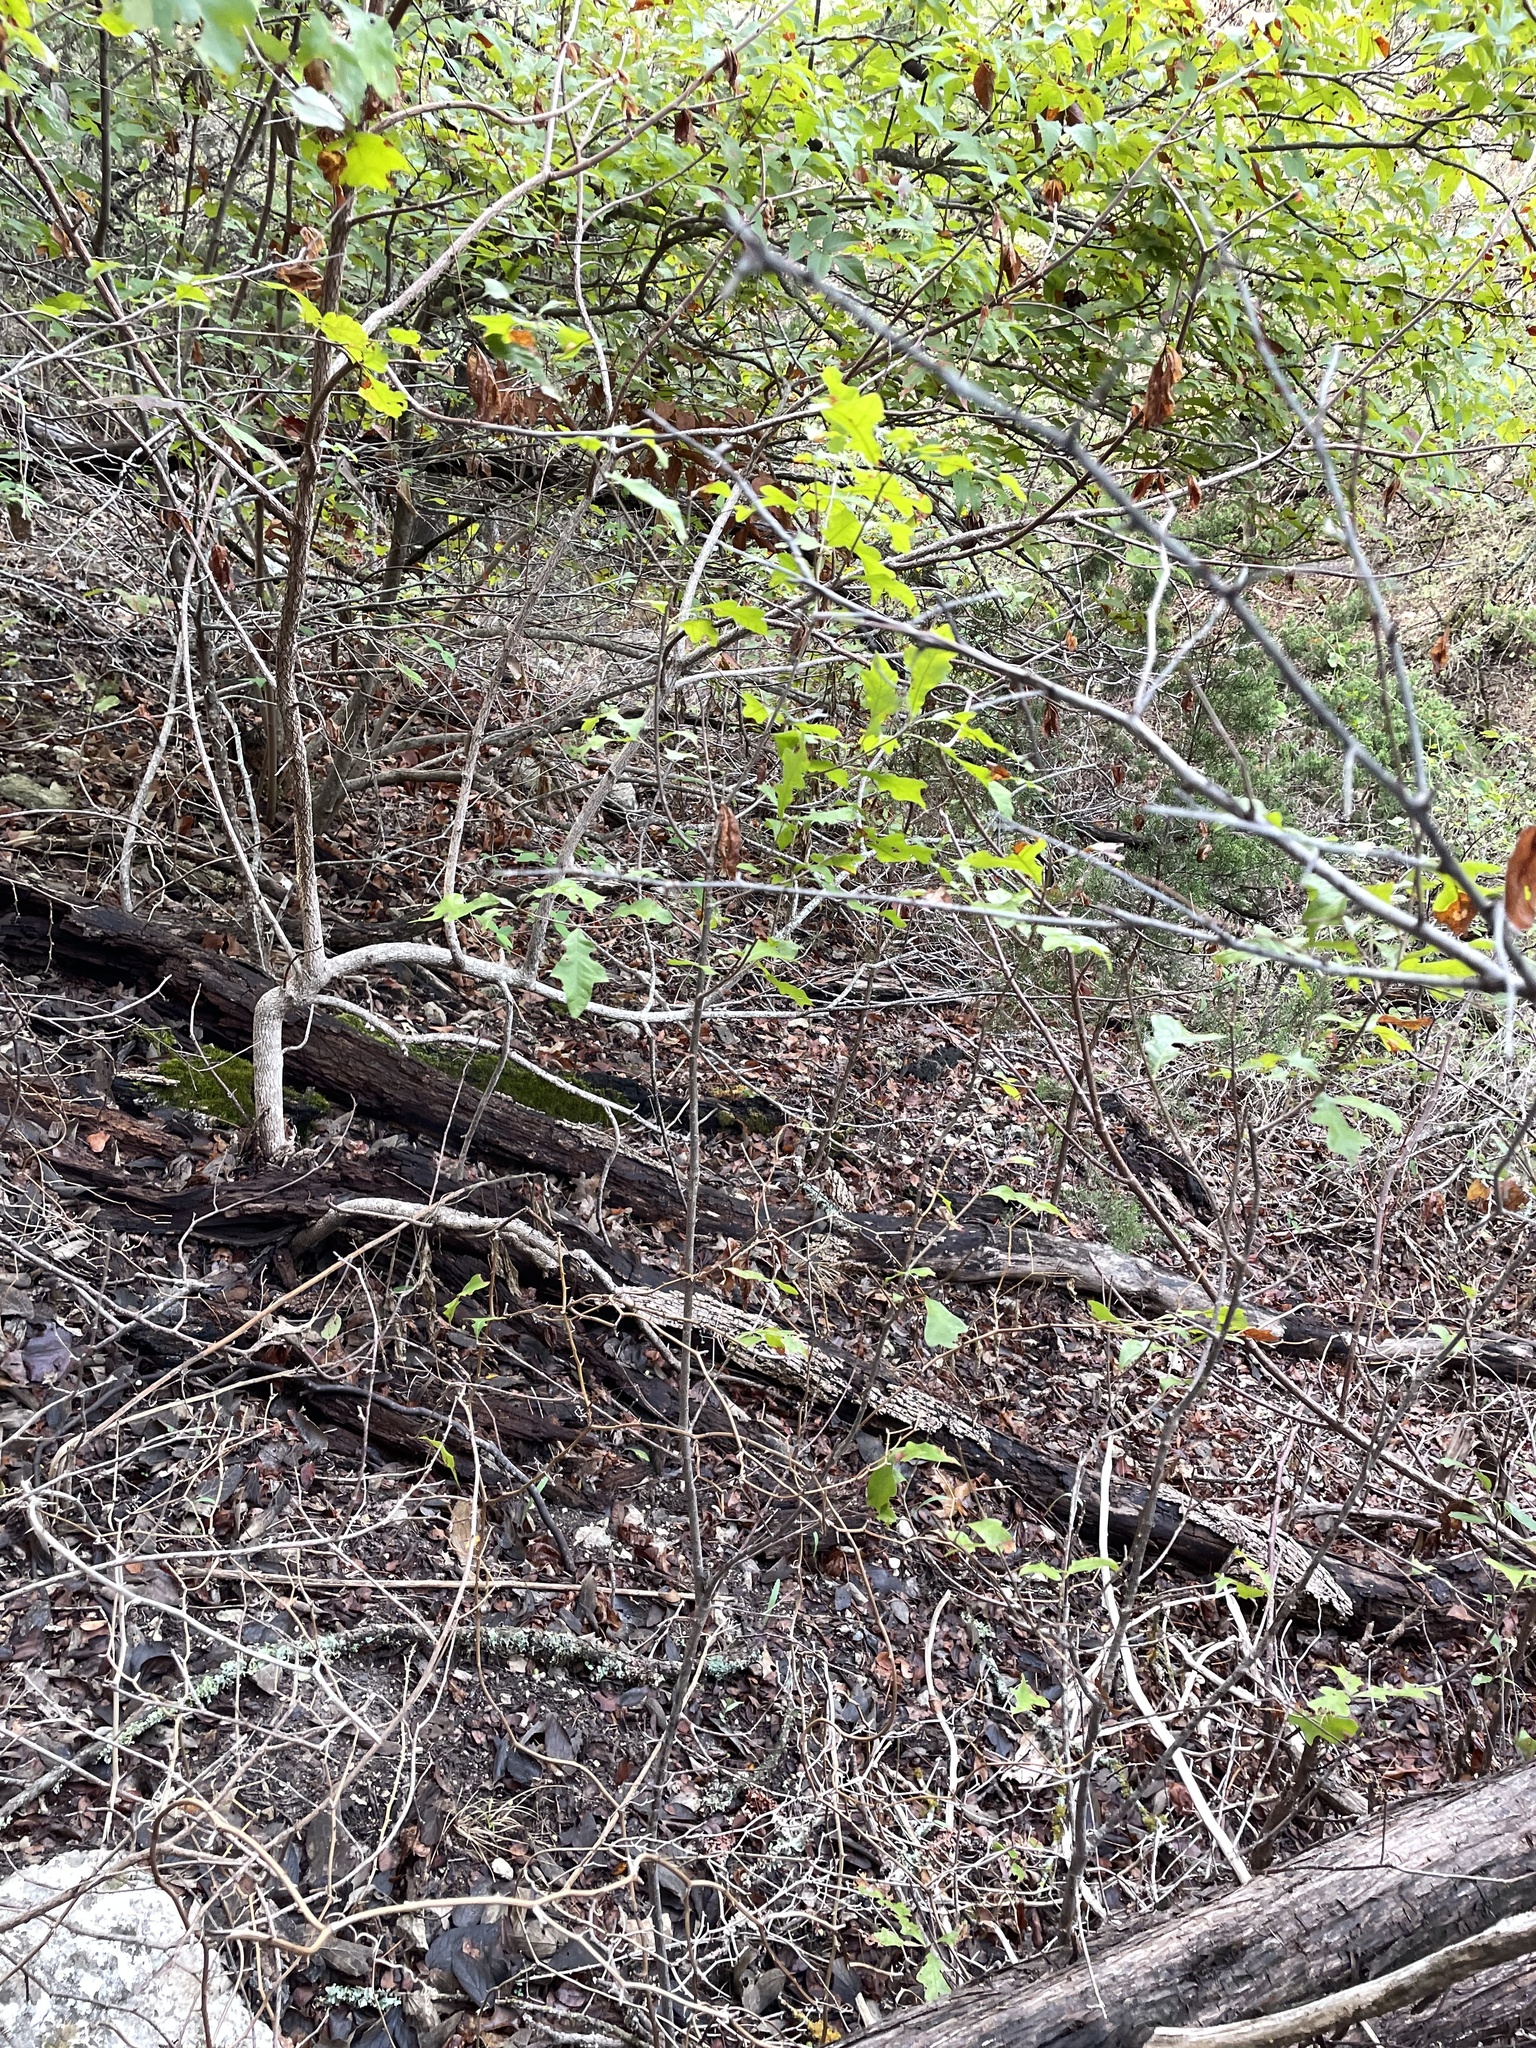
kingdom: Plantae
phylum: Tracheophyta
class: Magnoliopsida
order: Fagales
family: Fagaceae
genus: Quercus
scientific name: Quercus sinuata
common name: Durand oak
